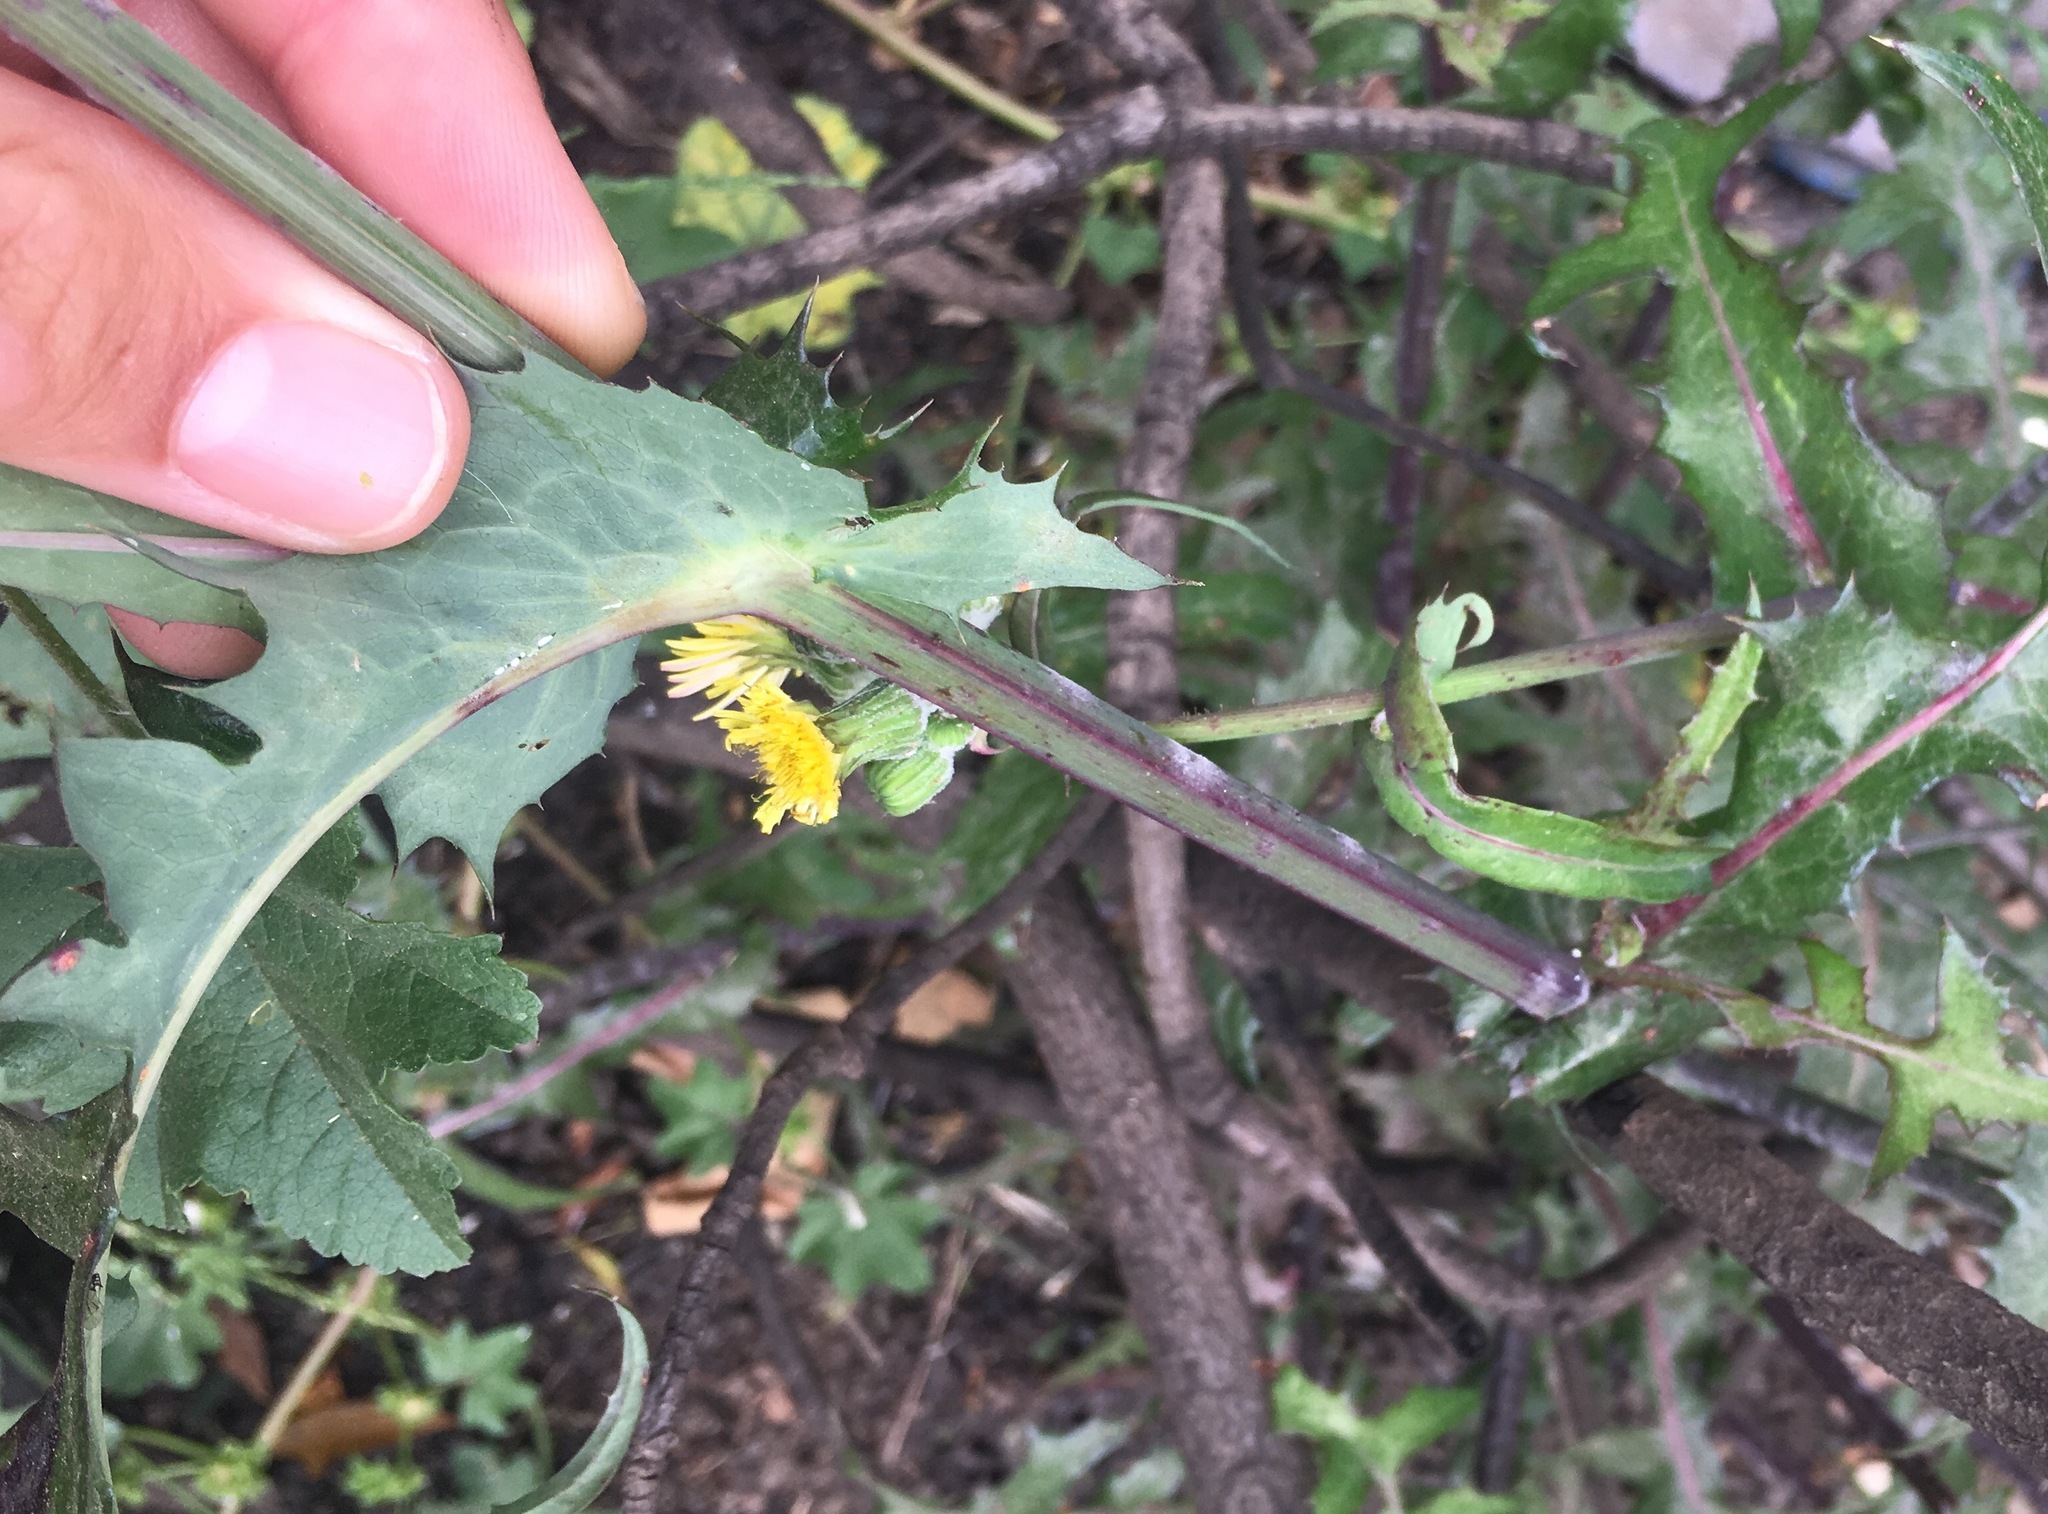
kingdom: Plantae
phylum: Tracheophyta
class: Magnoliopsida
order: Asterales
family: Asteraceae
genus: Sonchus
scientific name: Sonchus oleraceus
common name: Common sowthistle
